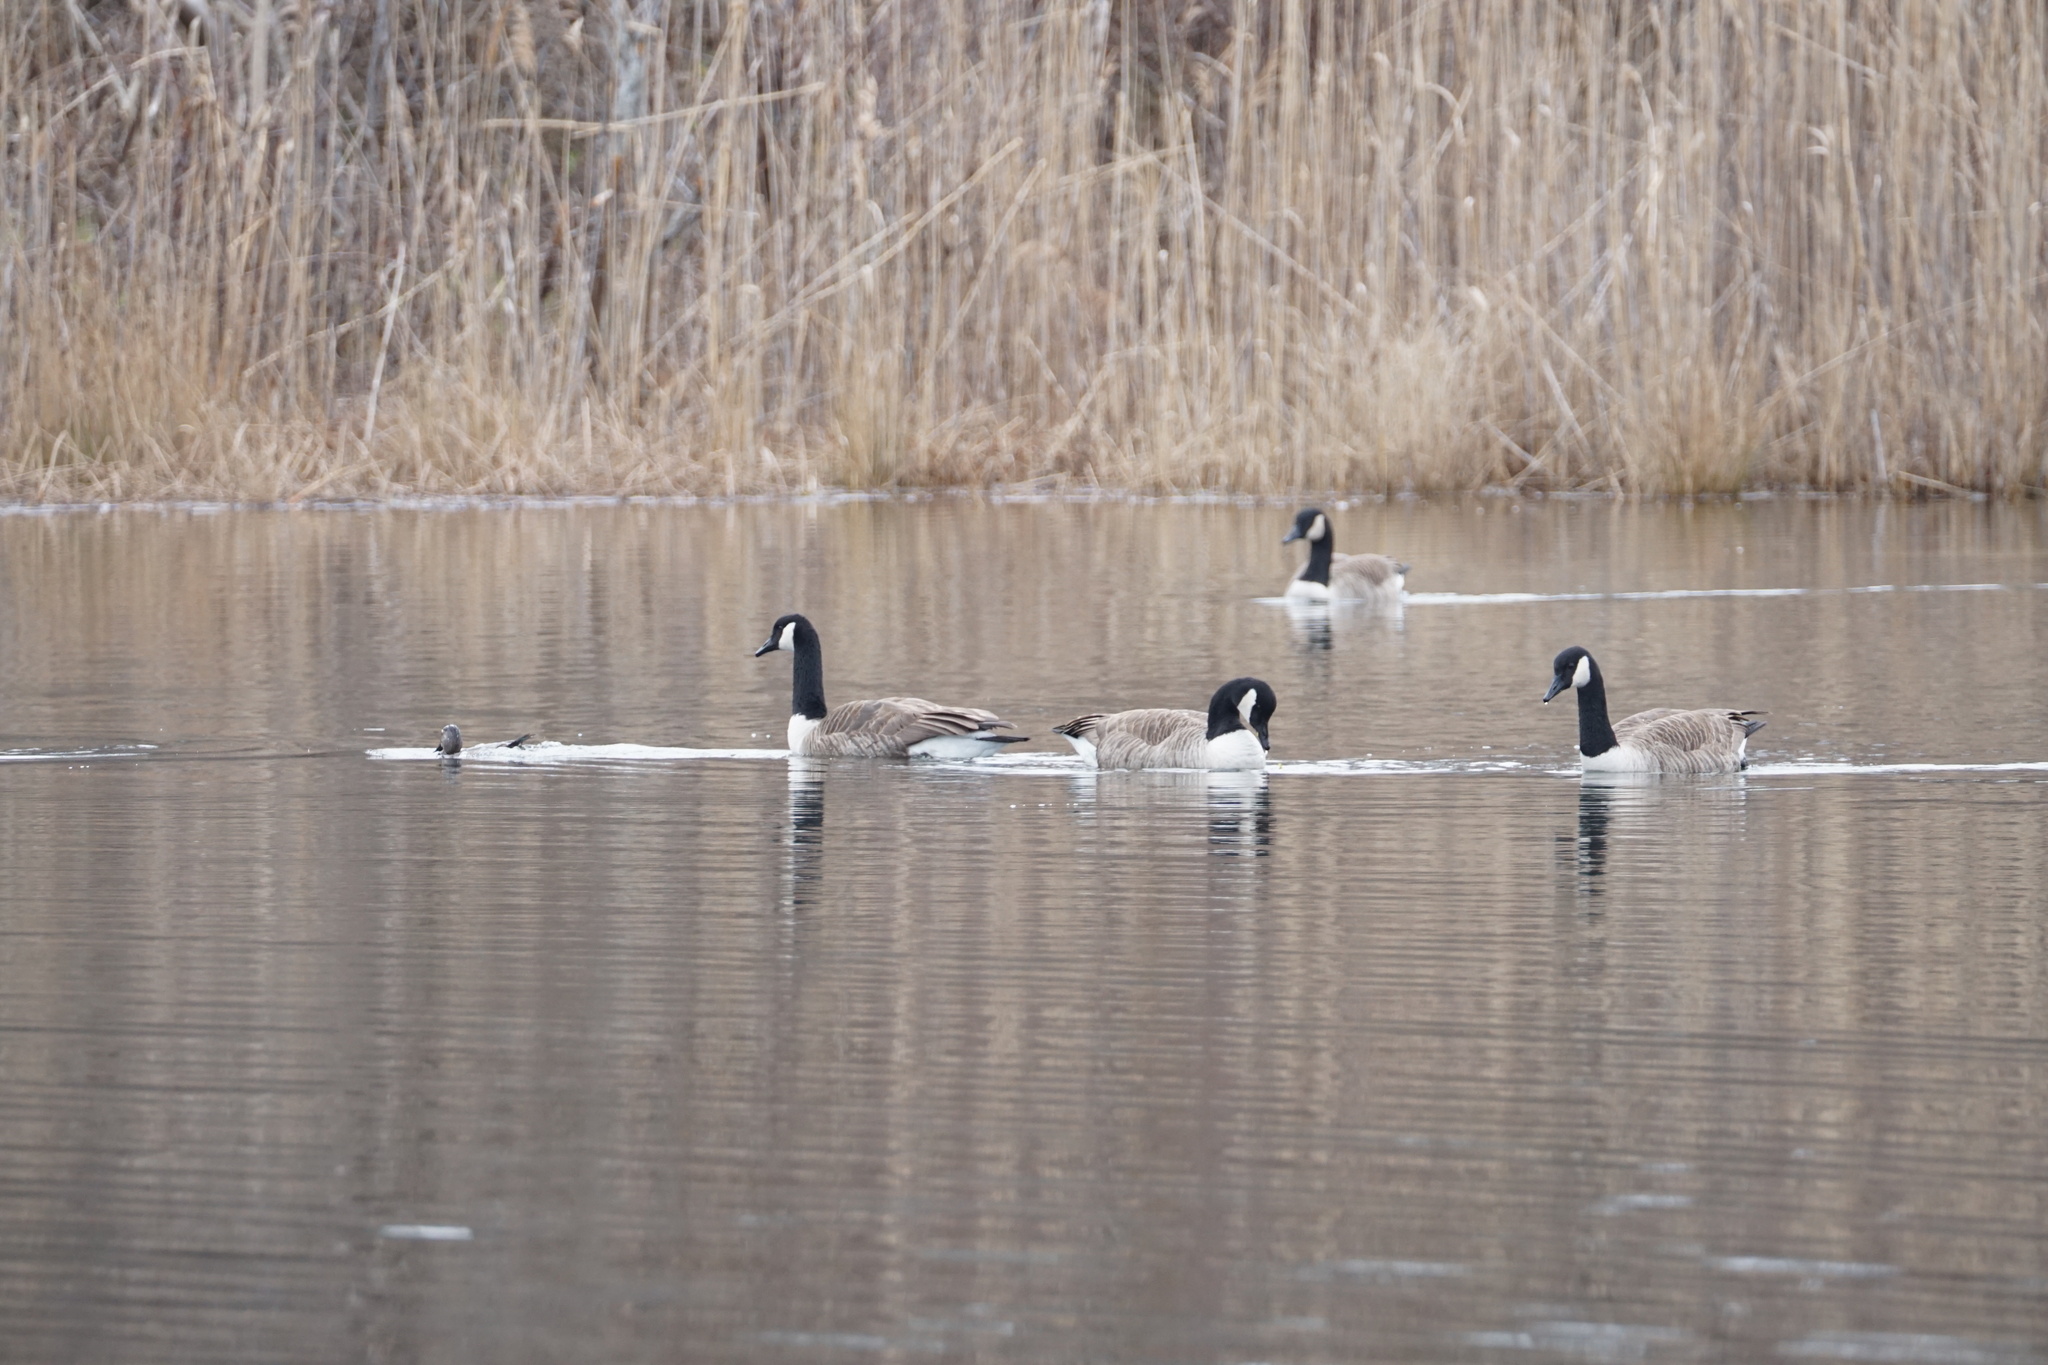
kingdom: Animalia
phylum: Chordata
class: Aves
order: Anseriformes
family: Anatidae
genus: Branta
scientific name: Branta canadensis
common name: Canada goose
